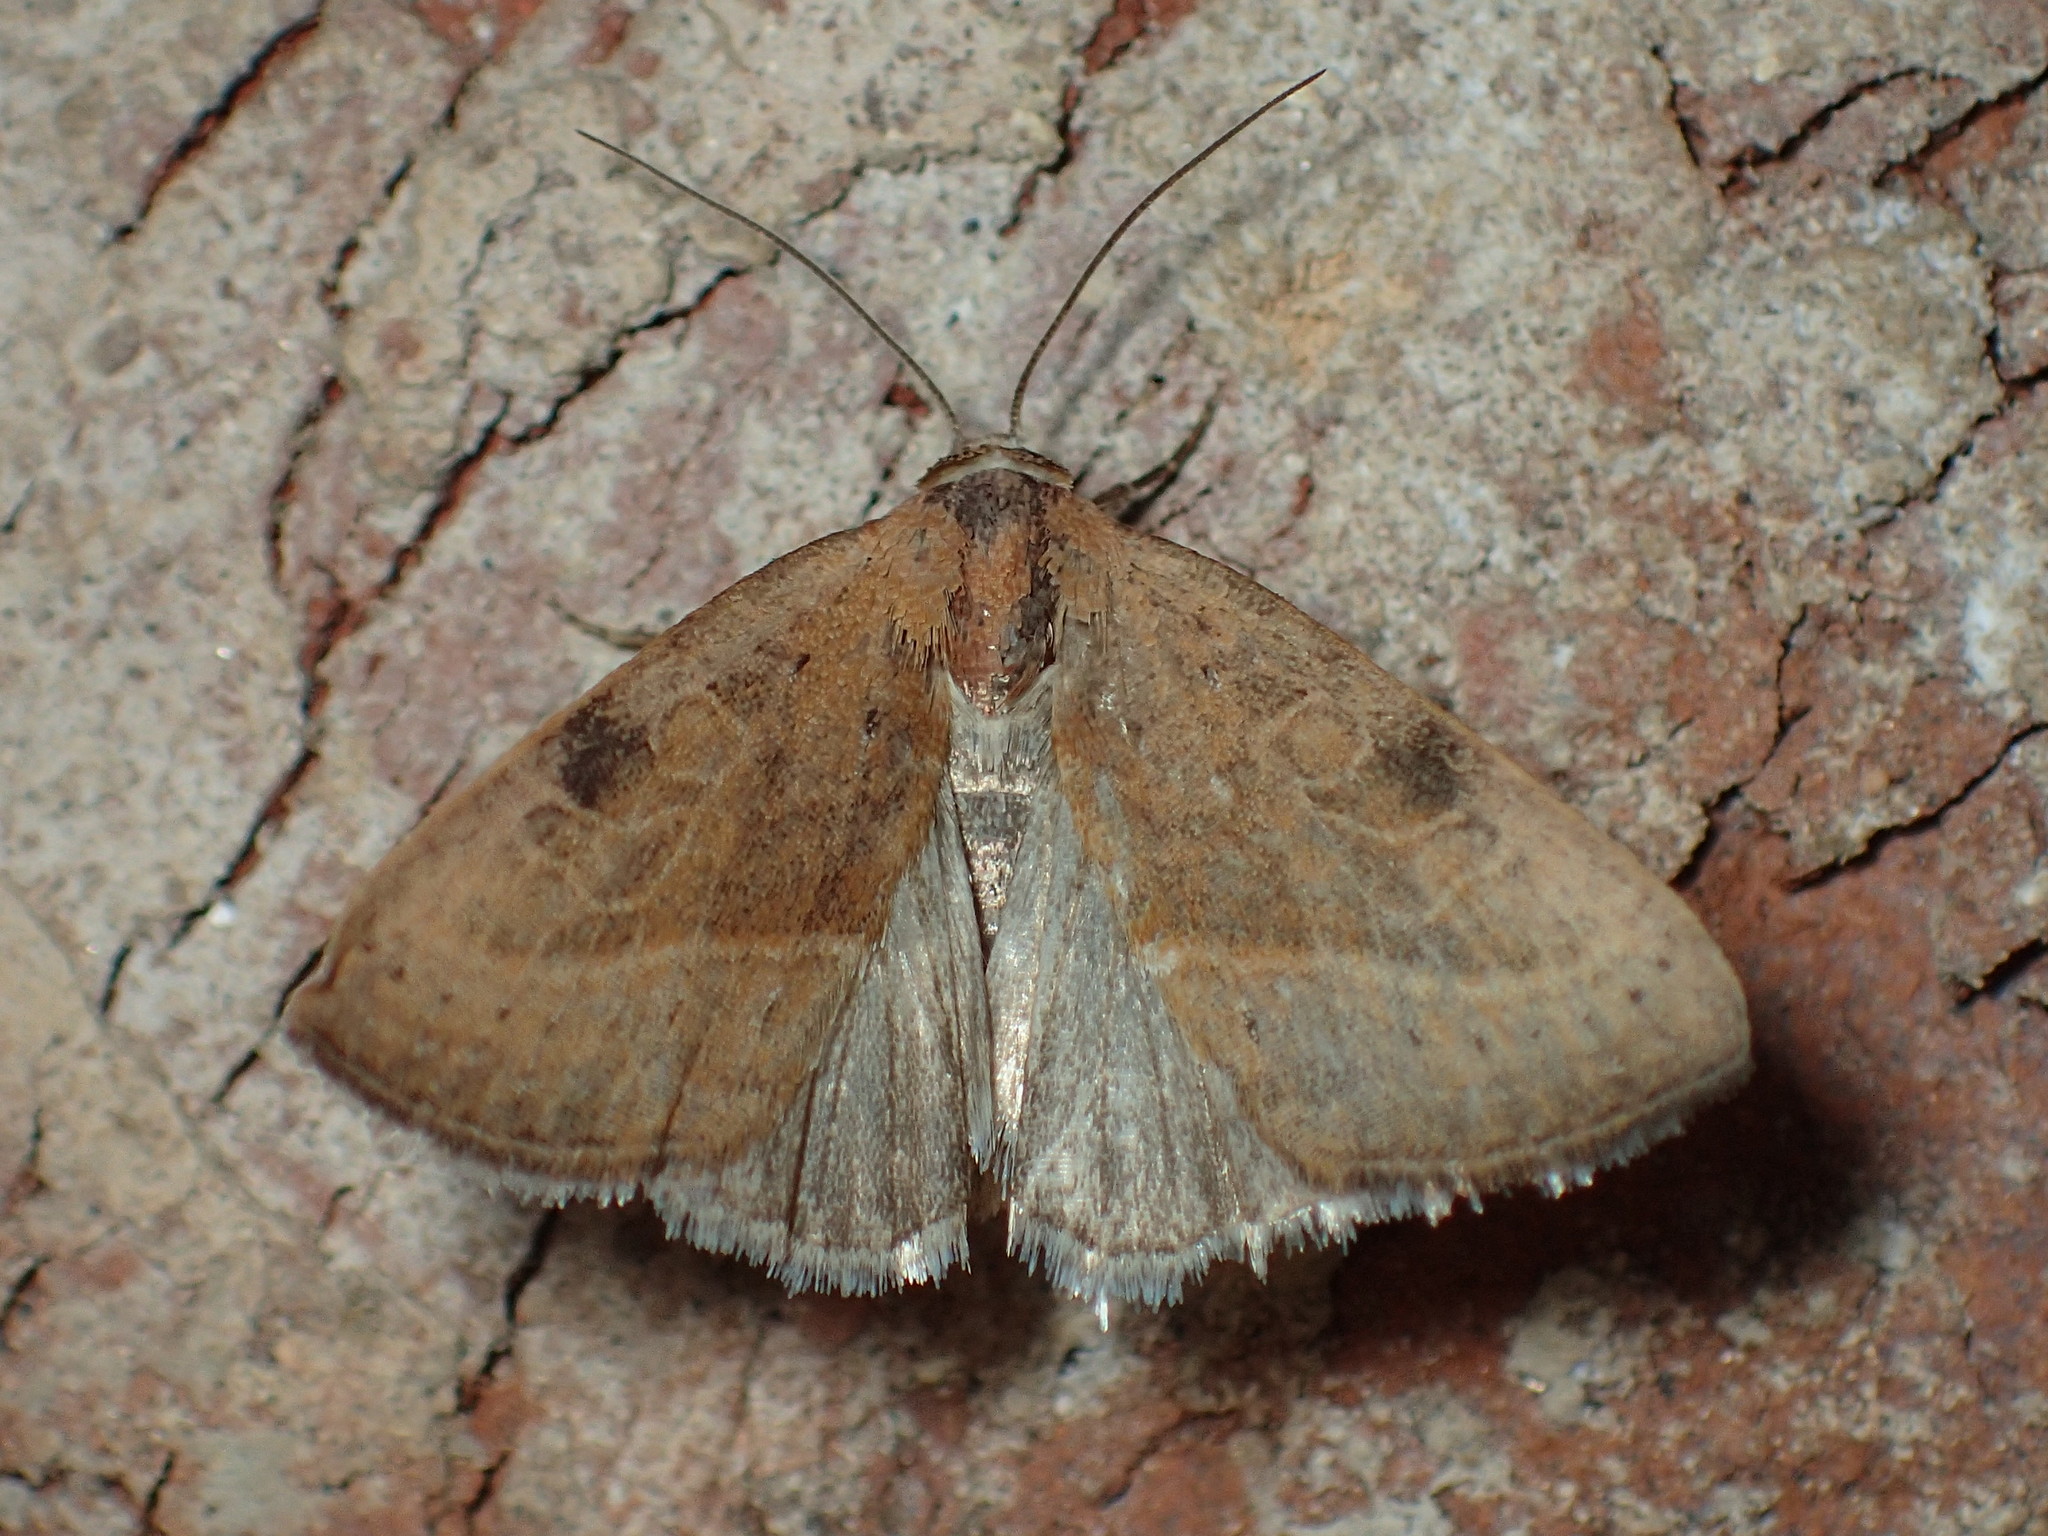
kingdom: Animalia
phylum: Arthropoda
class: Insecta
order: Lepidoptera
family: Noctuidae
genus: Galgula
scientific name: Galgula partita
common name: Wedgeling
